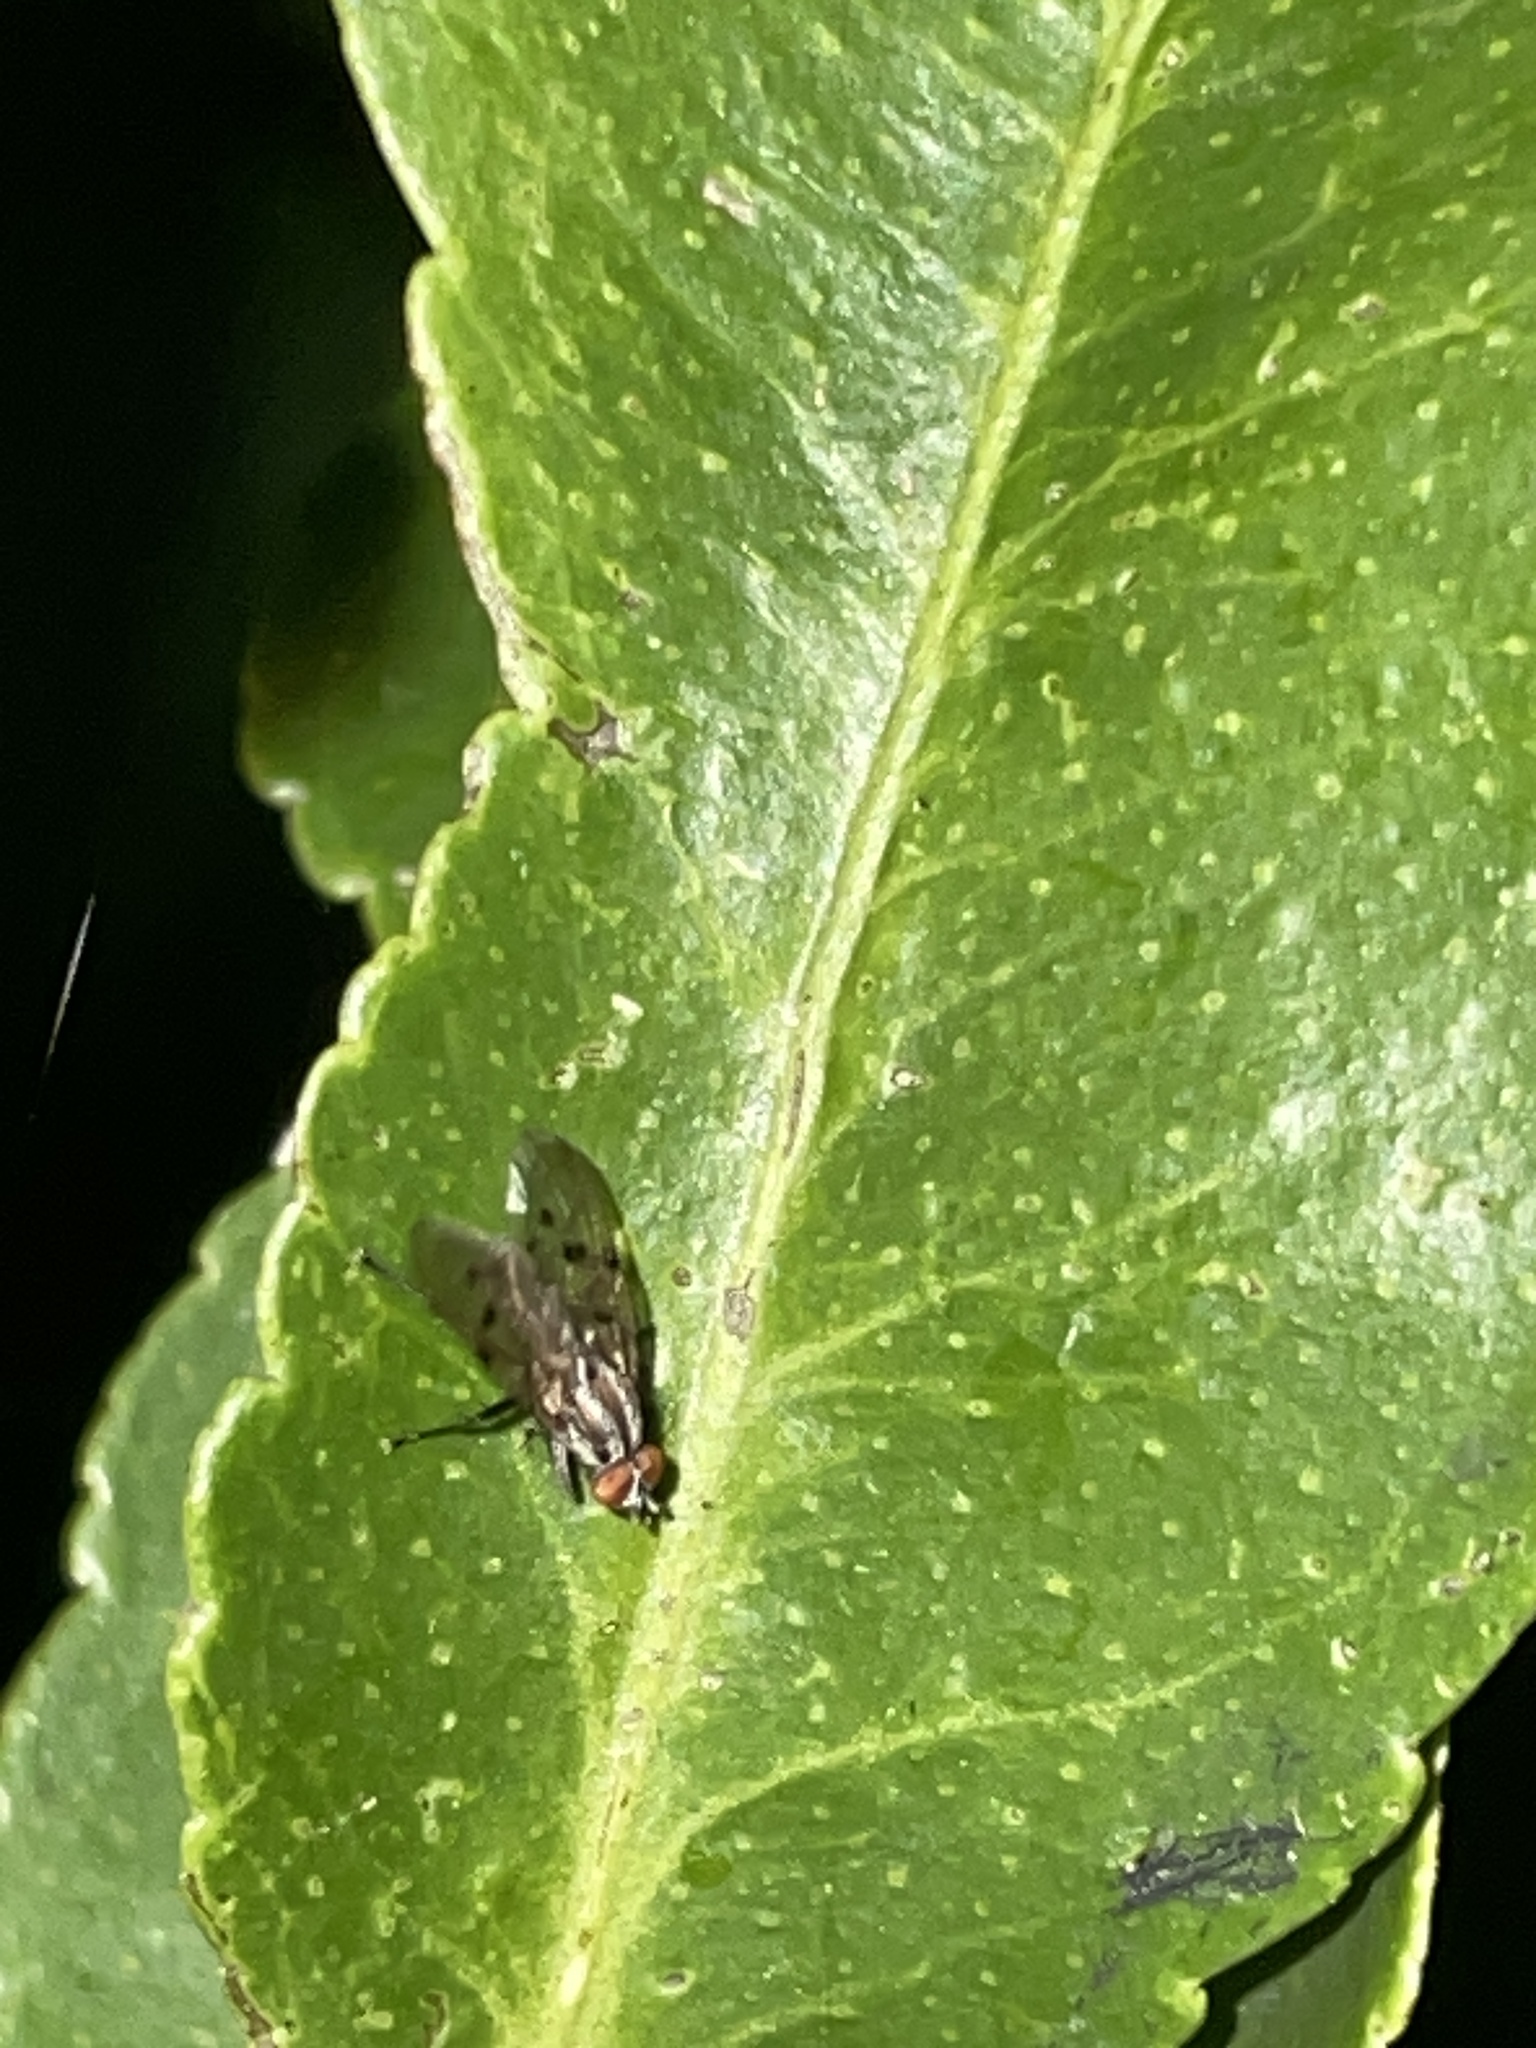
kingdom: Animalia
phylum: Arthropoda
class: Insecta
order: Diptera
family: Anthomyiidae
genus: Anthomyia
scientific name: Anthomyia punctipennis
